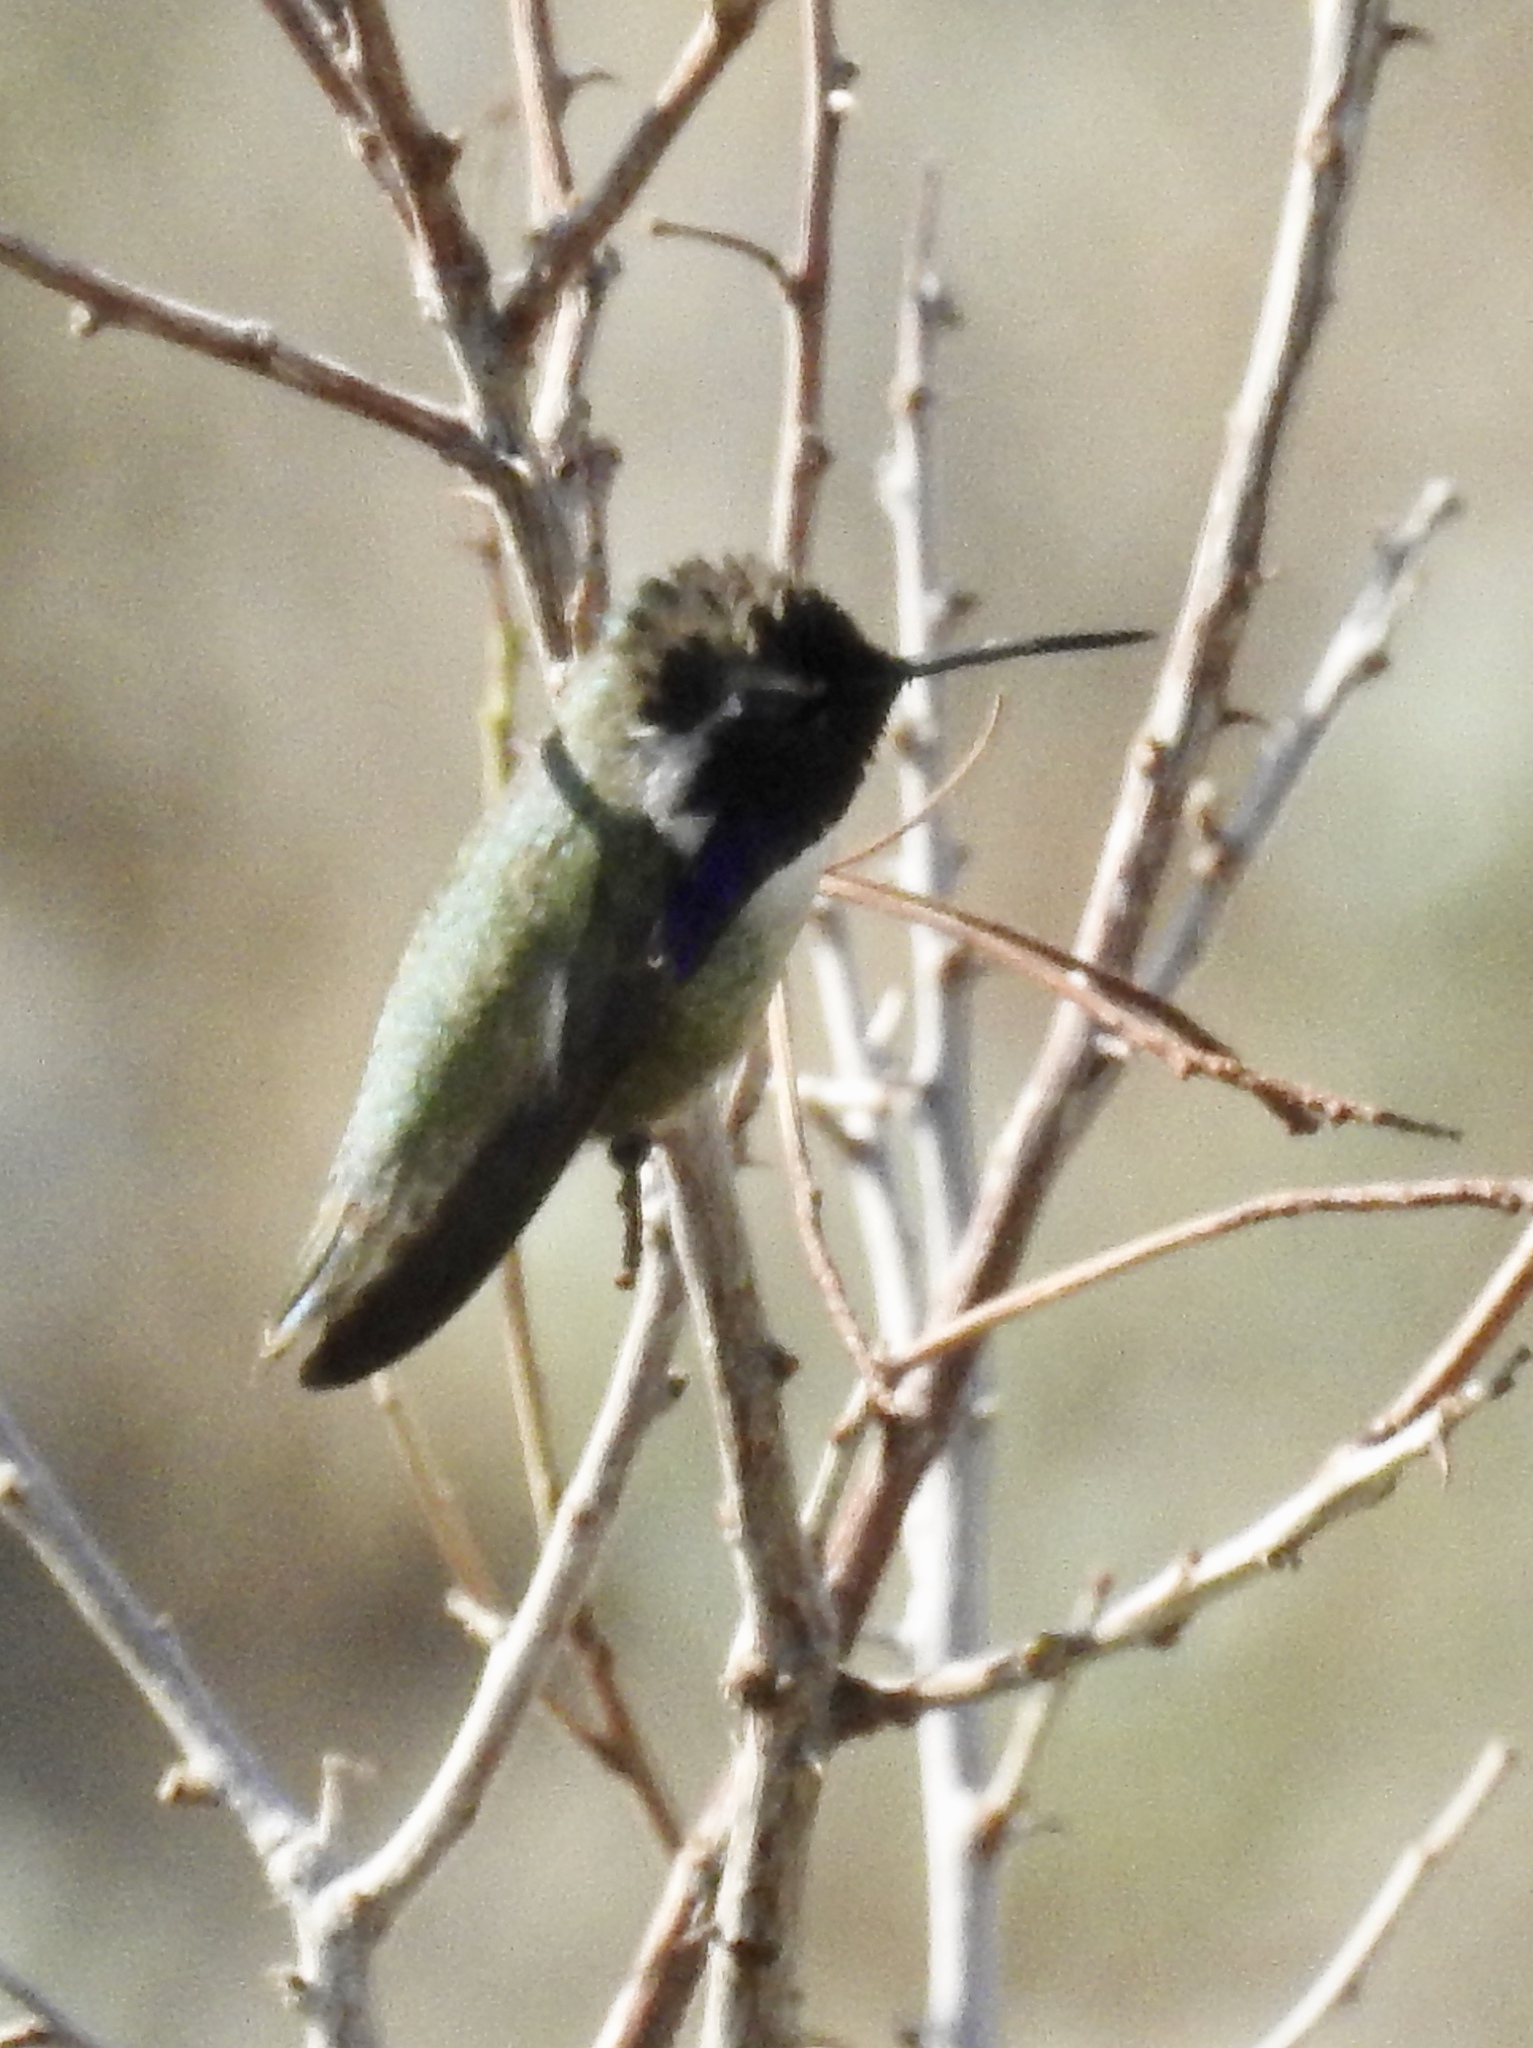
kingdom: Animalia
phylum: Chordata
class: Aves
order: Apodiformes
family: Trochilidae
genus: Calypte
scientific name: Calypte costae
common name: Costa's hummingbird
